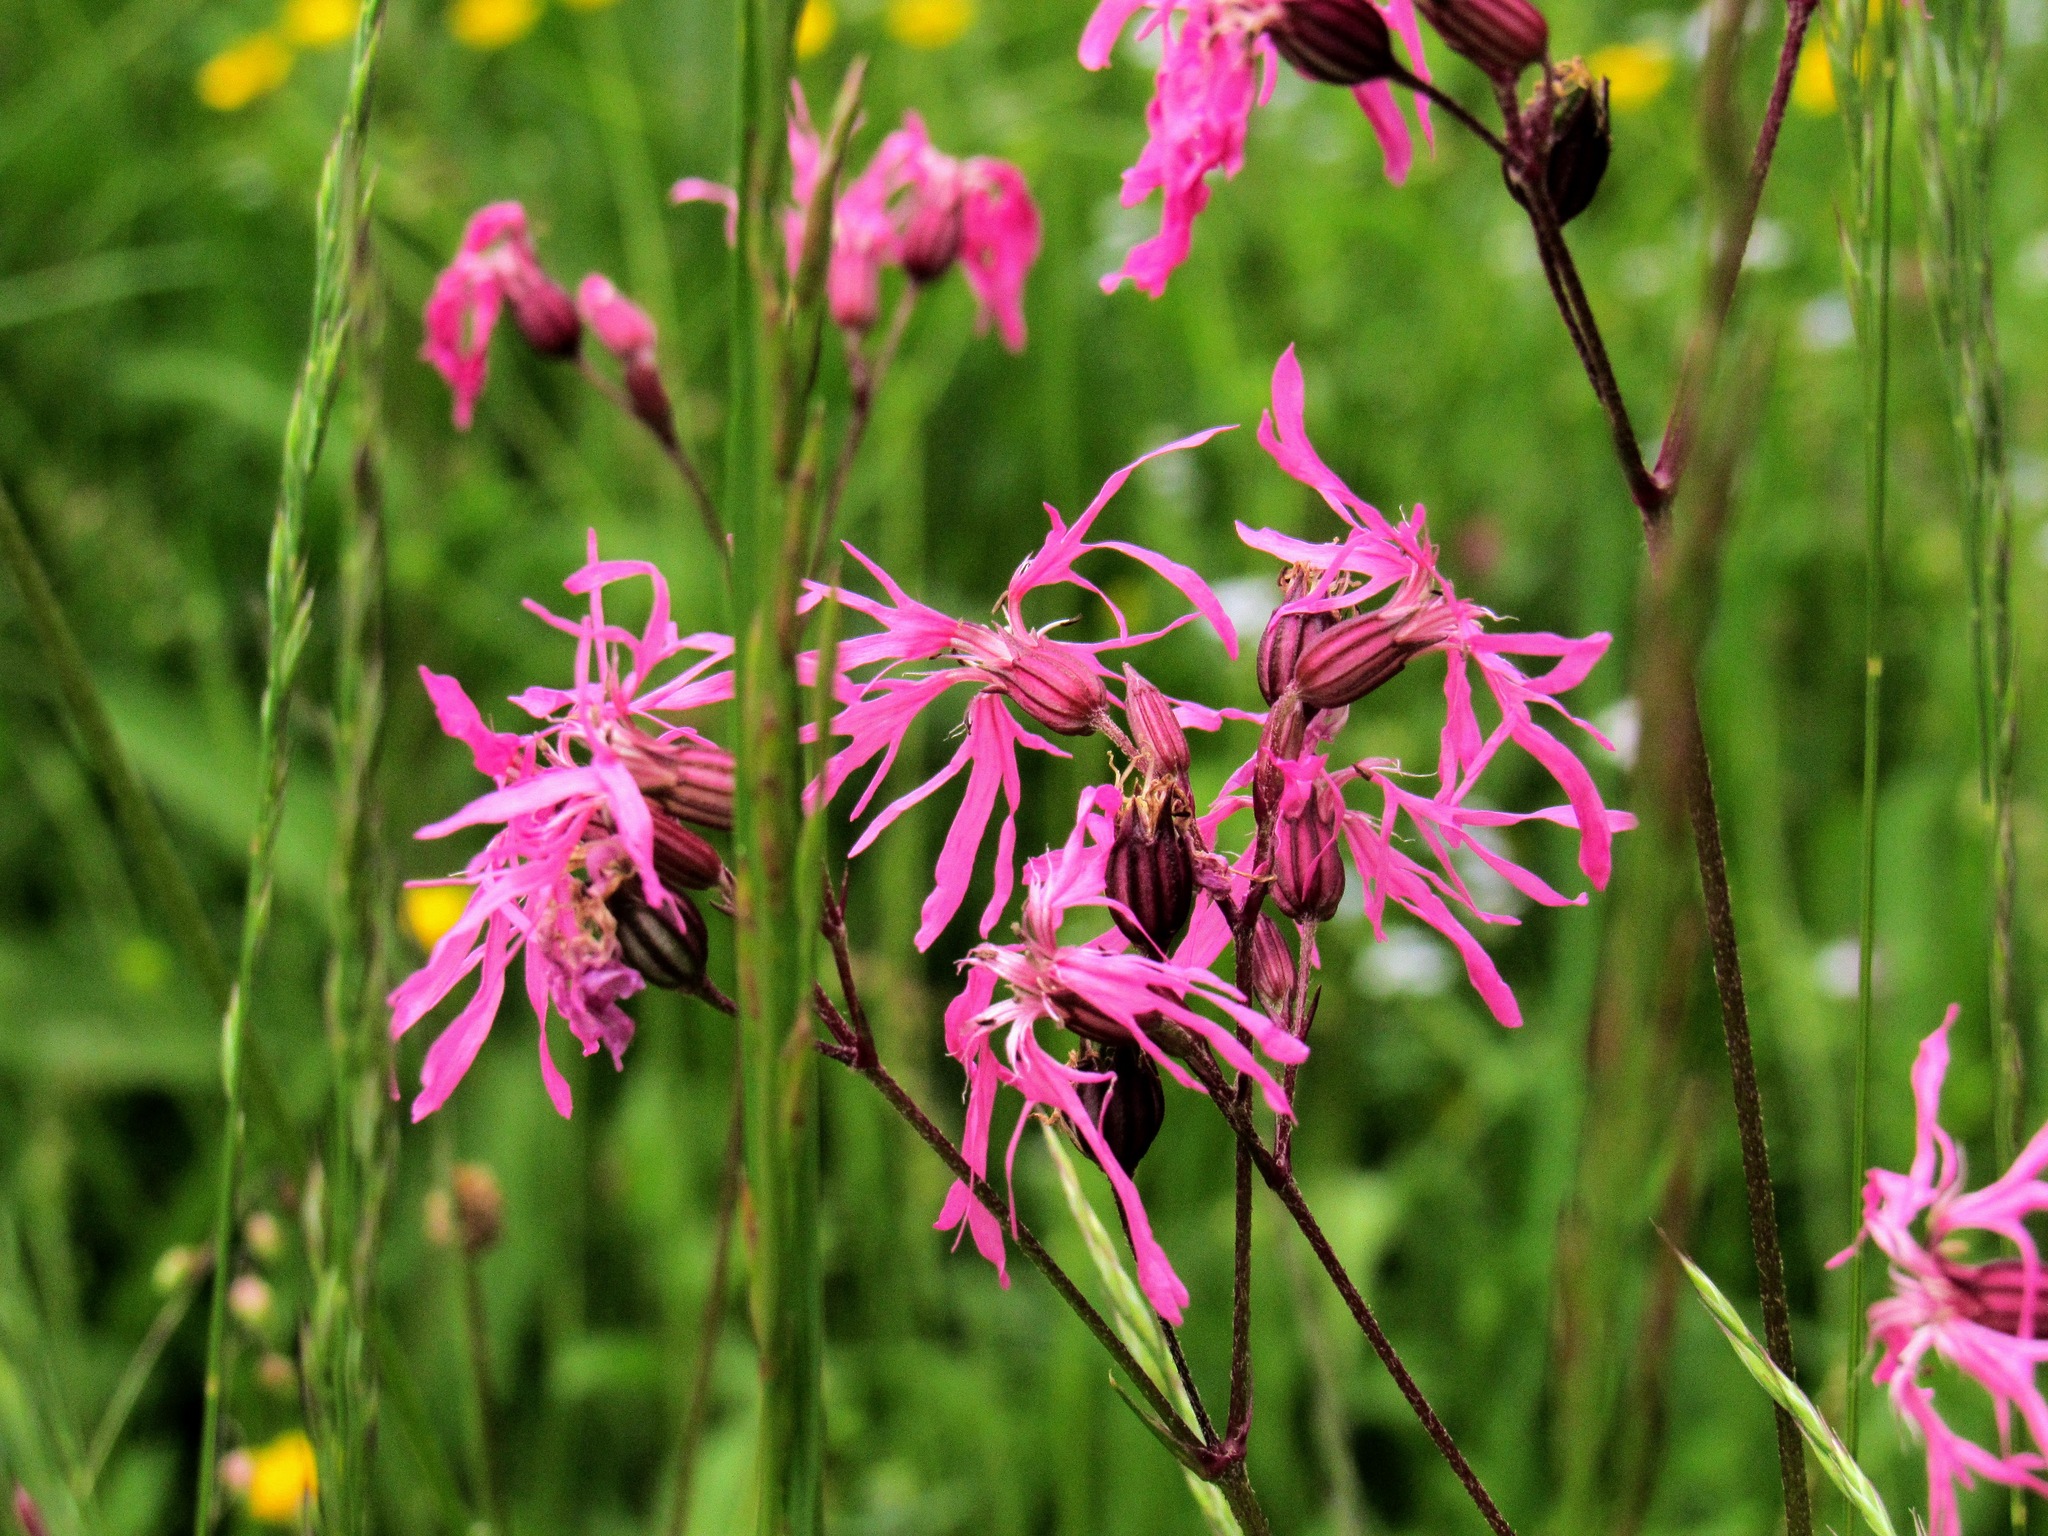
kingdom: Plantae
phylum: Tracheophyta
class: Magnoliopsida
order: Caryophyllales
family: Caryophyllaceae
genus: Silene
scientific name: Silene flos-cuculi
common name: Ragged-robin
